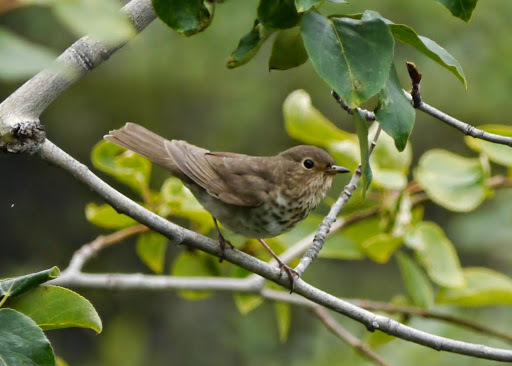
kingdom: Animalia
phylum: Chordata
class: Aves
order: Passeriformes
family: Turdidae
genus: Catharus
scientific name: Catharus ustulatus
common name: Swainson's thrush
